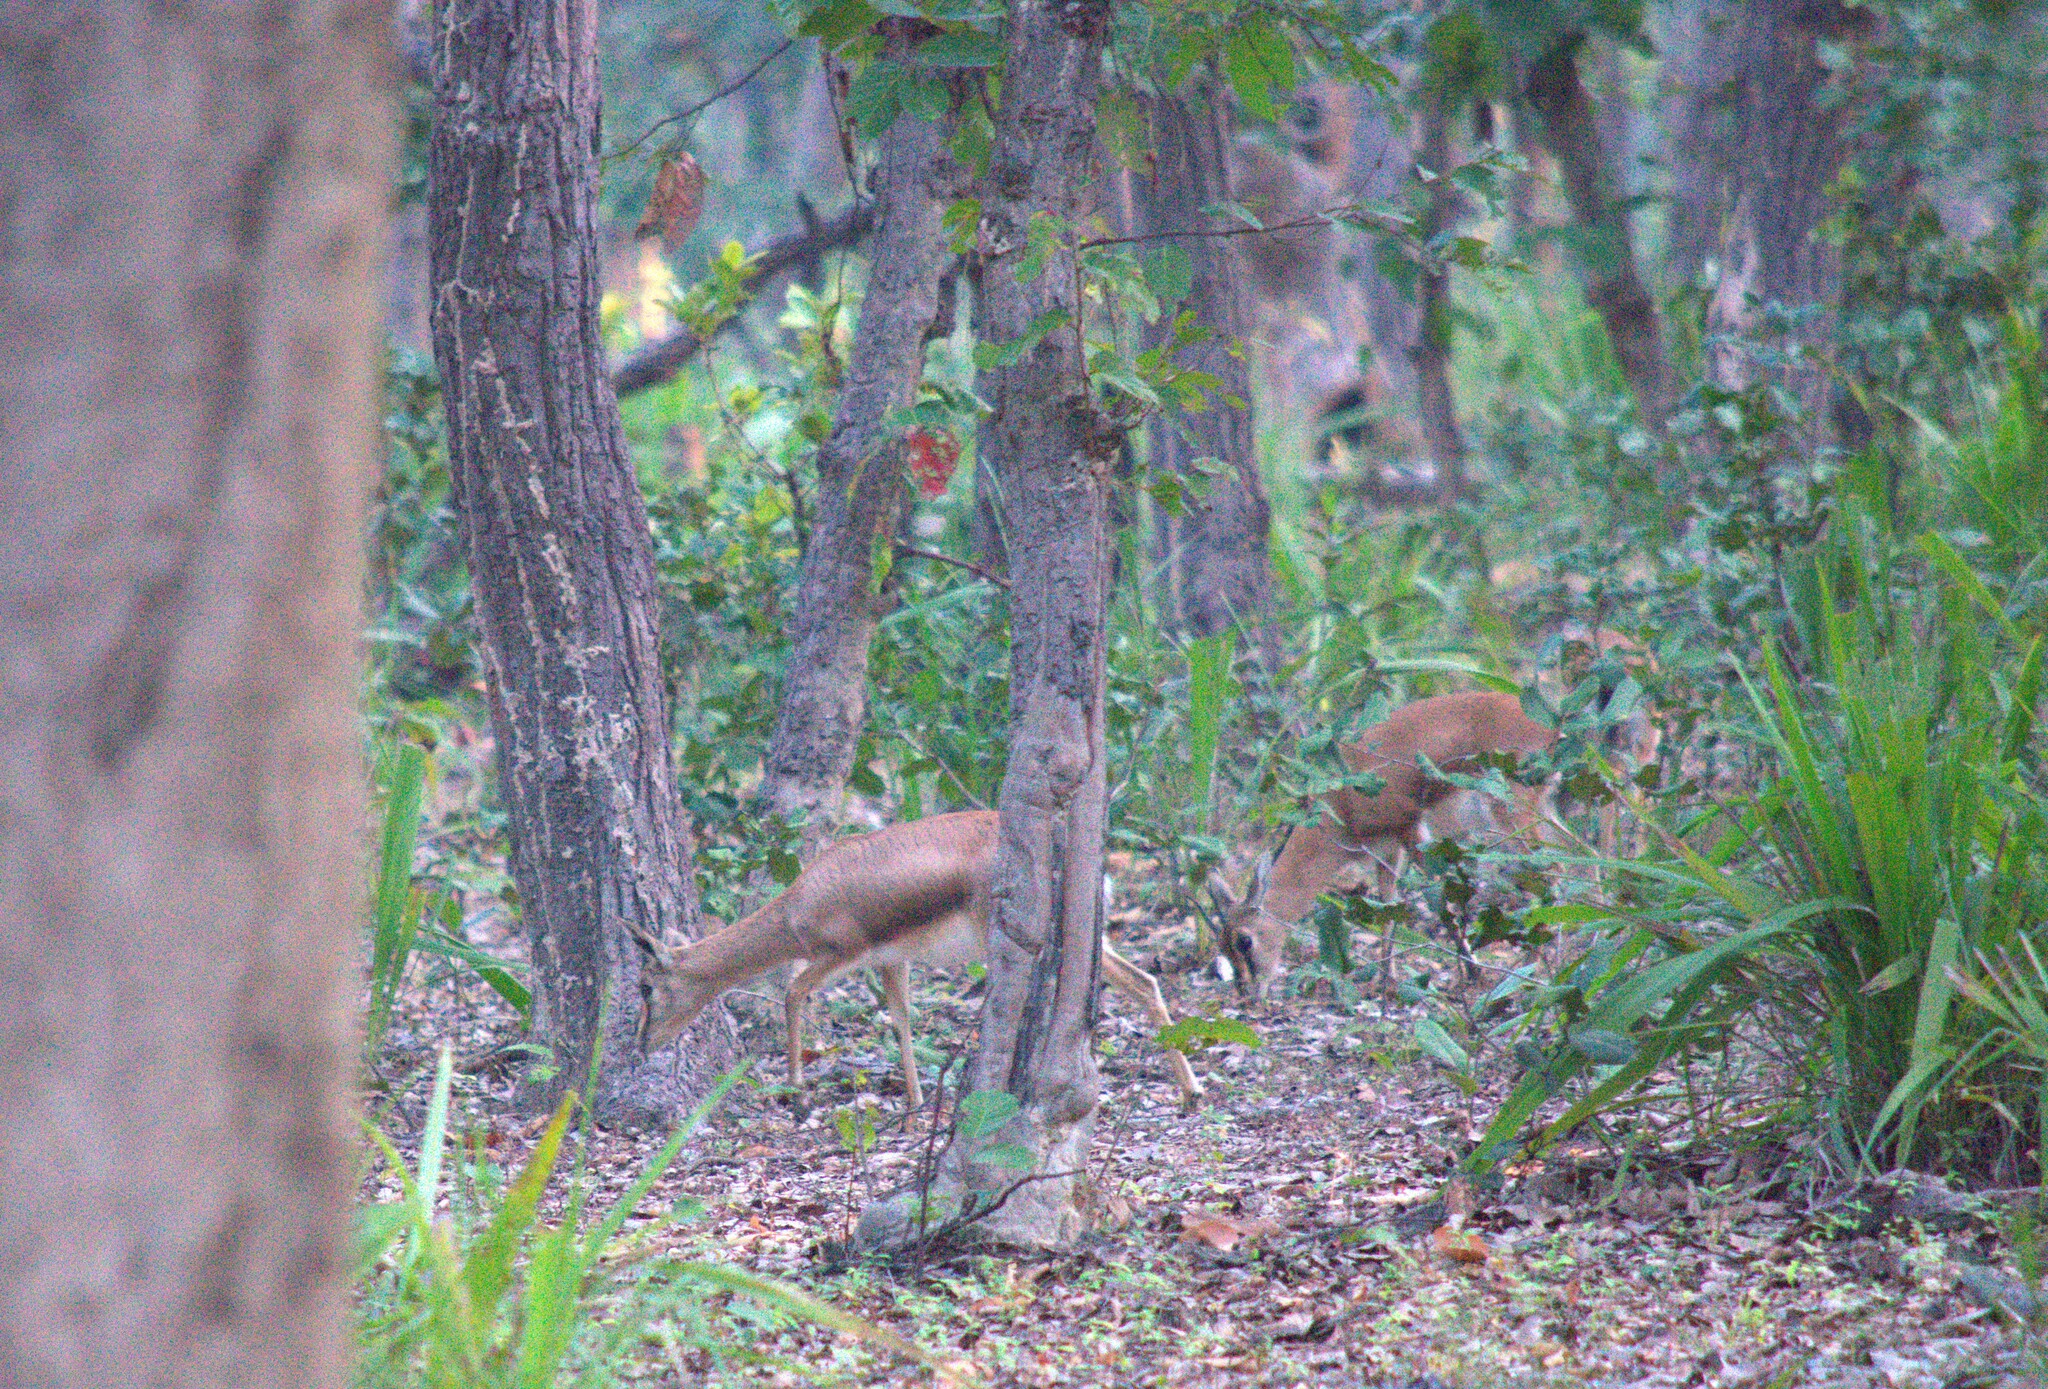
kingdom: Animalia
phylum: Chordata
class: Mammalia
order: Artiodactyla
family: Bovidae
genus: Gazella
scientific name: Gazella bennettii
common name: Indian gazelle
